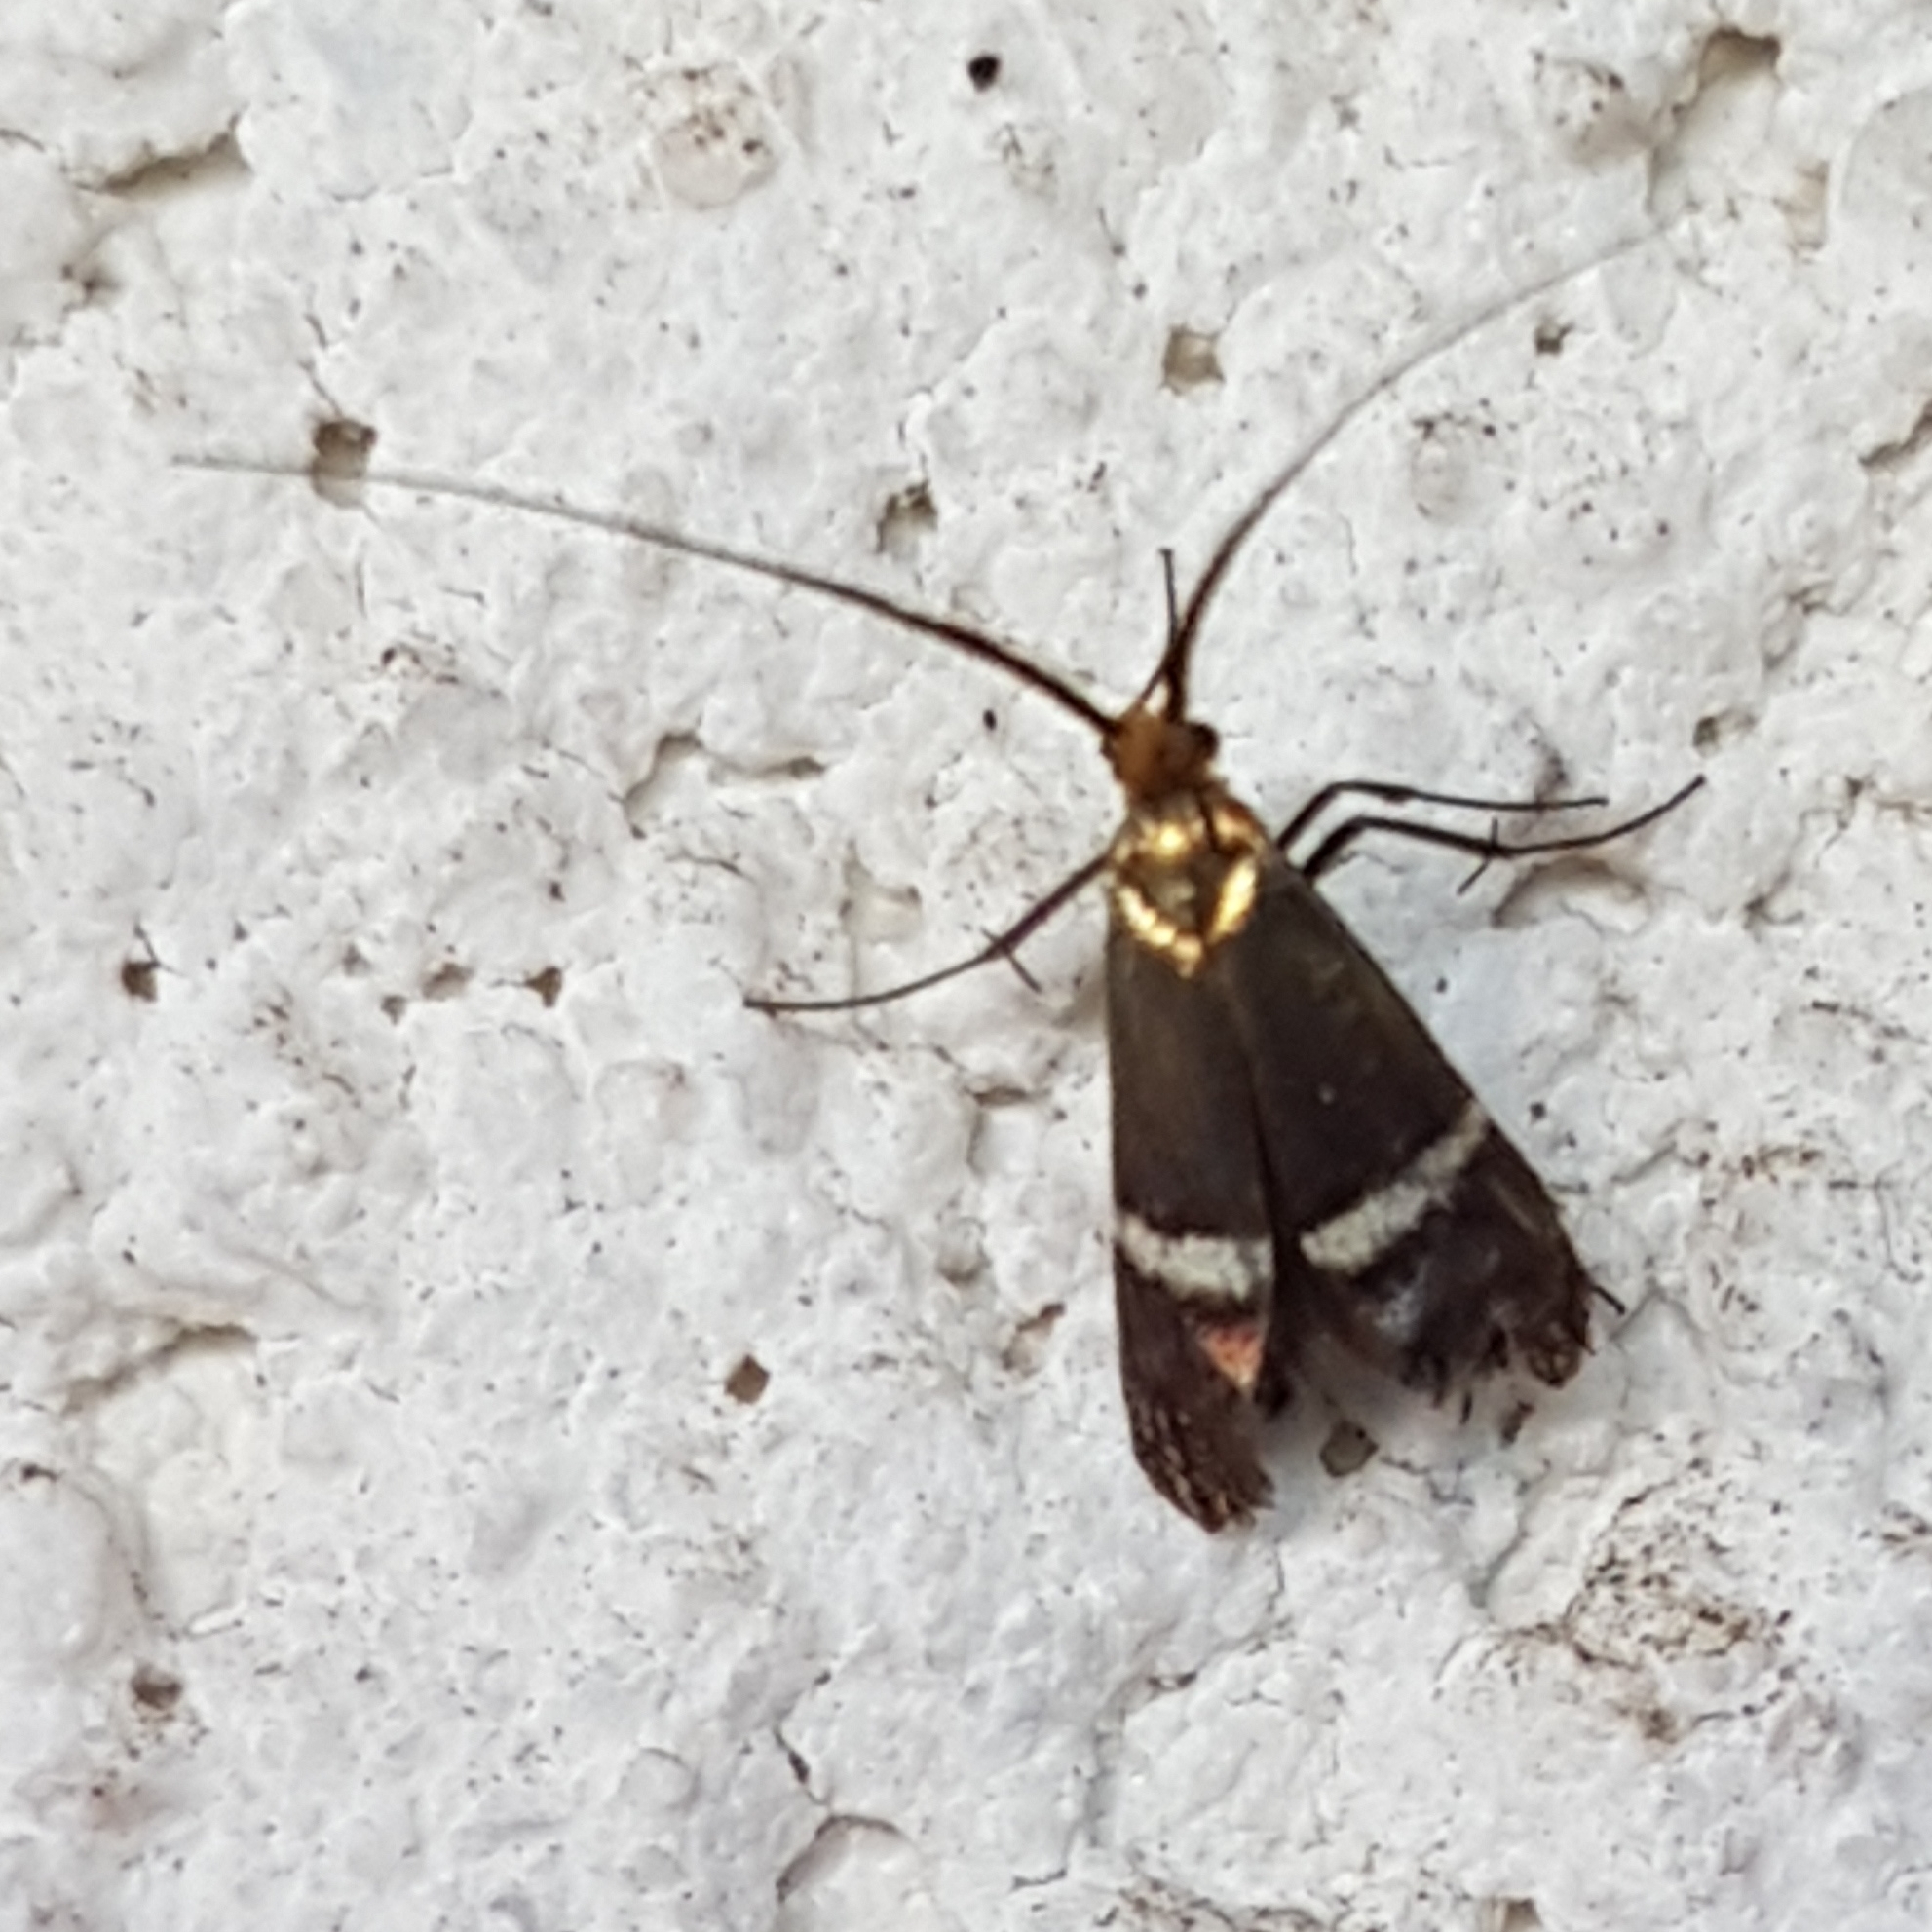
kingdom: Animalia
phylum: Arthropoda
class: Insecta
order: Lepidoptera
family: Adelidae
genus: Adela
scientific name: Adela australis
